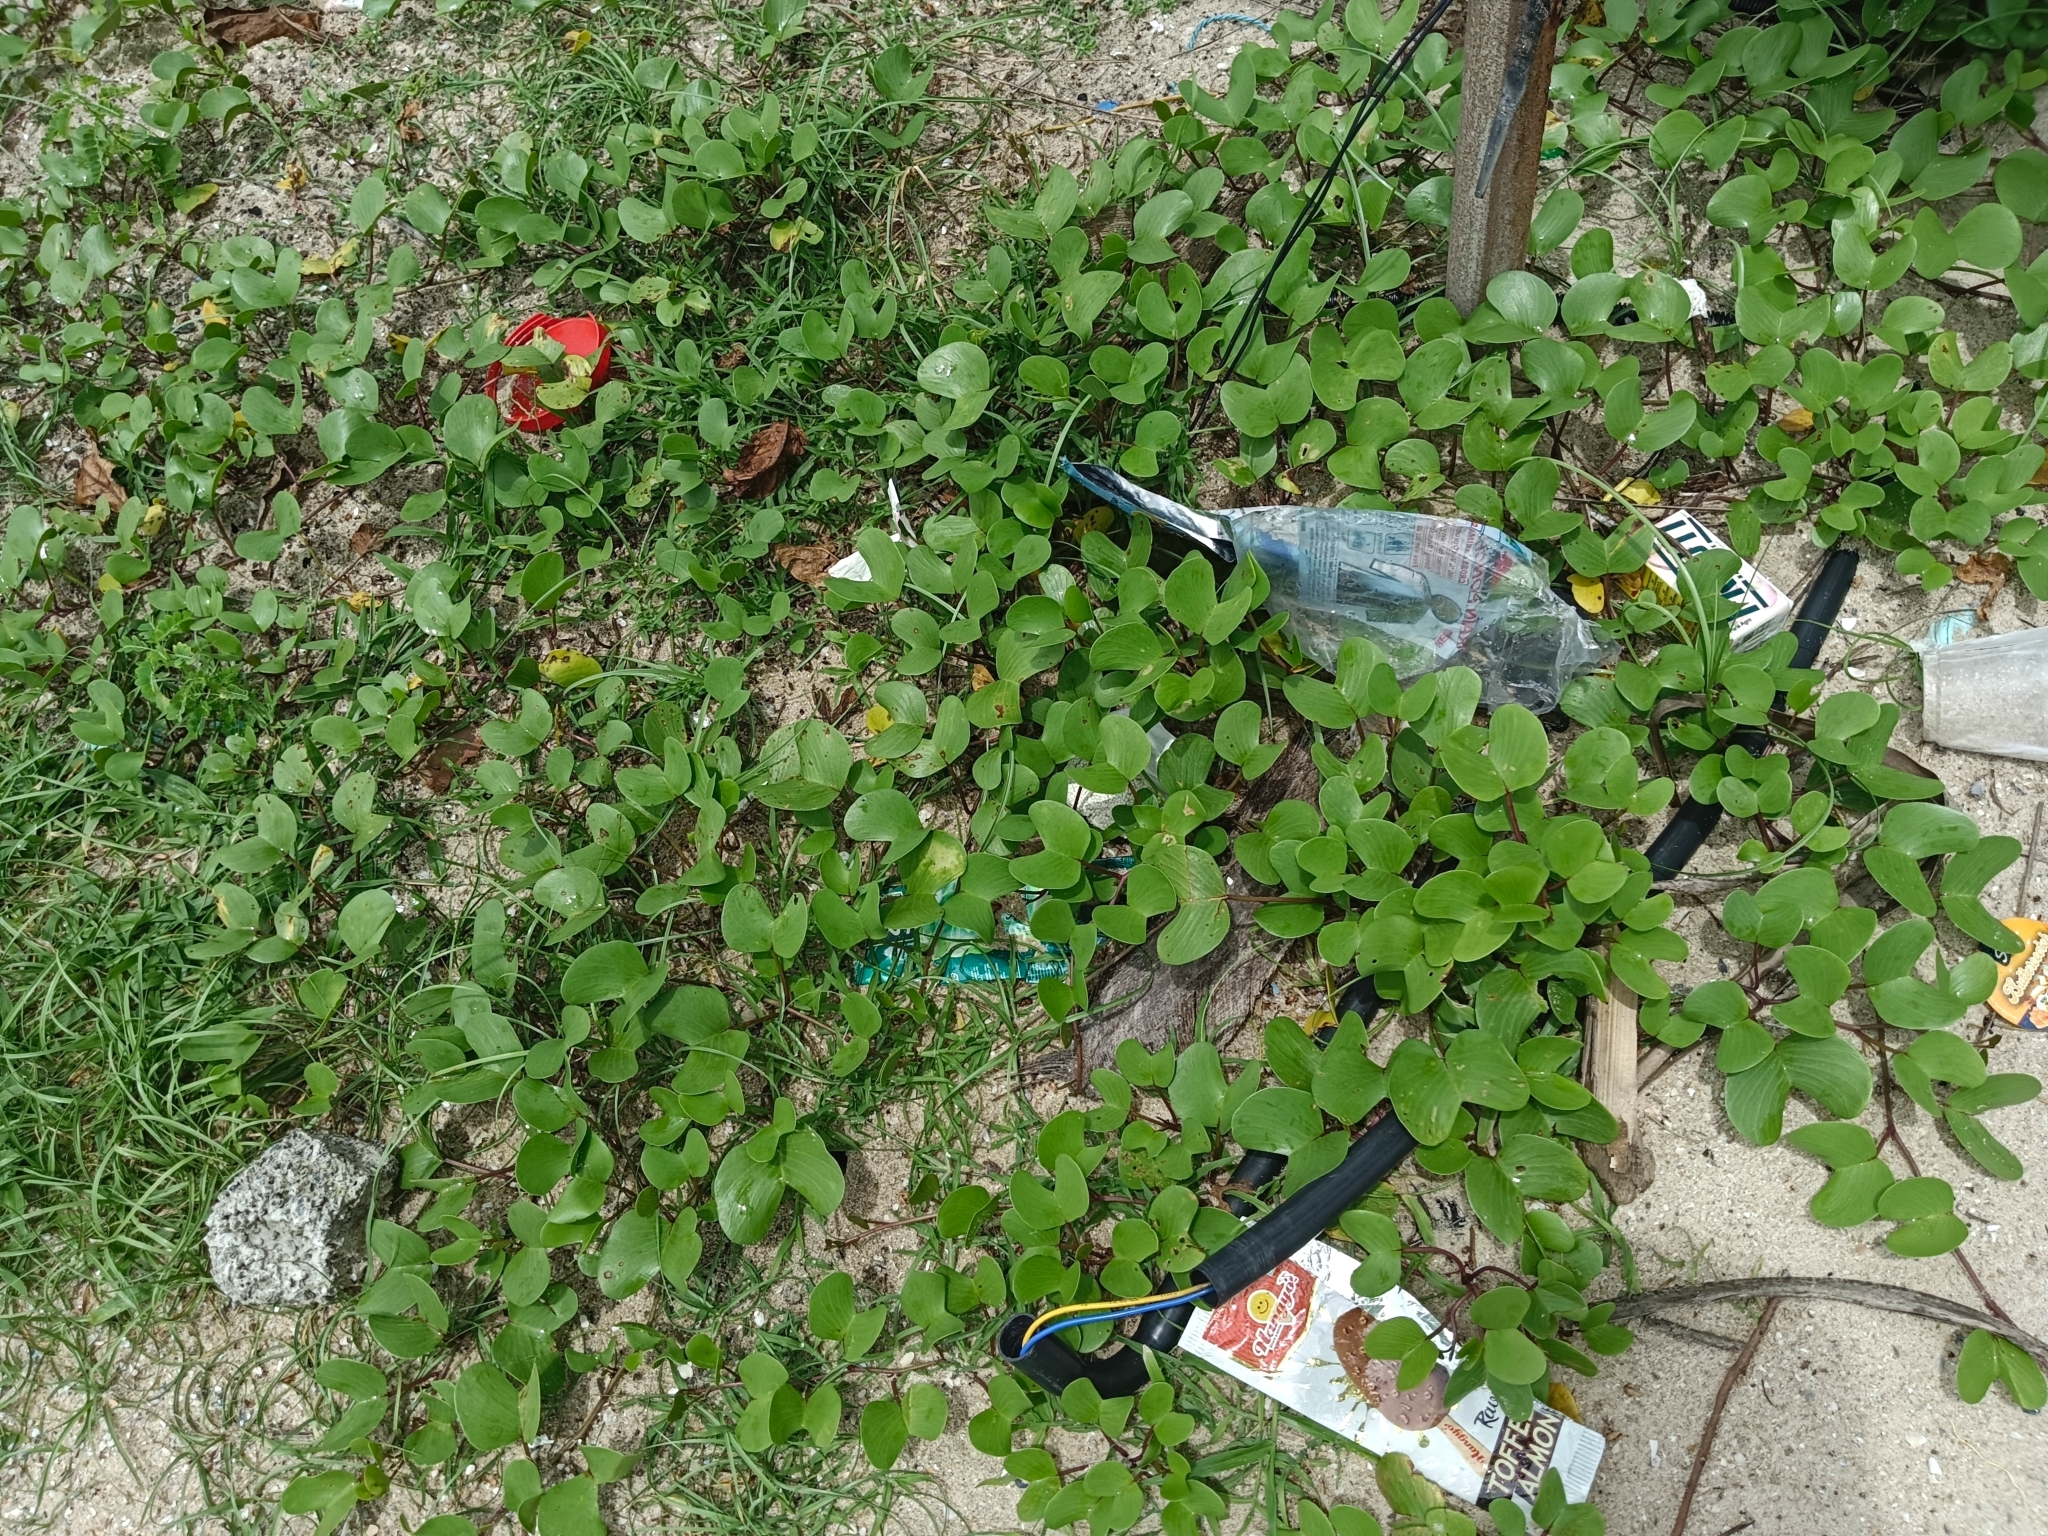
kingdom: Plantae
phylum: Tracheophyta
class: Magnoliopsida
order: Solanales
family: Convolvulaceae
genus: Ipomoea
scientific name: Ipomoea pes-caprae
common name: Beach morning glory
